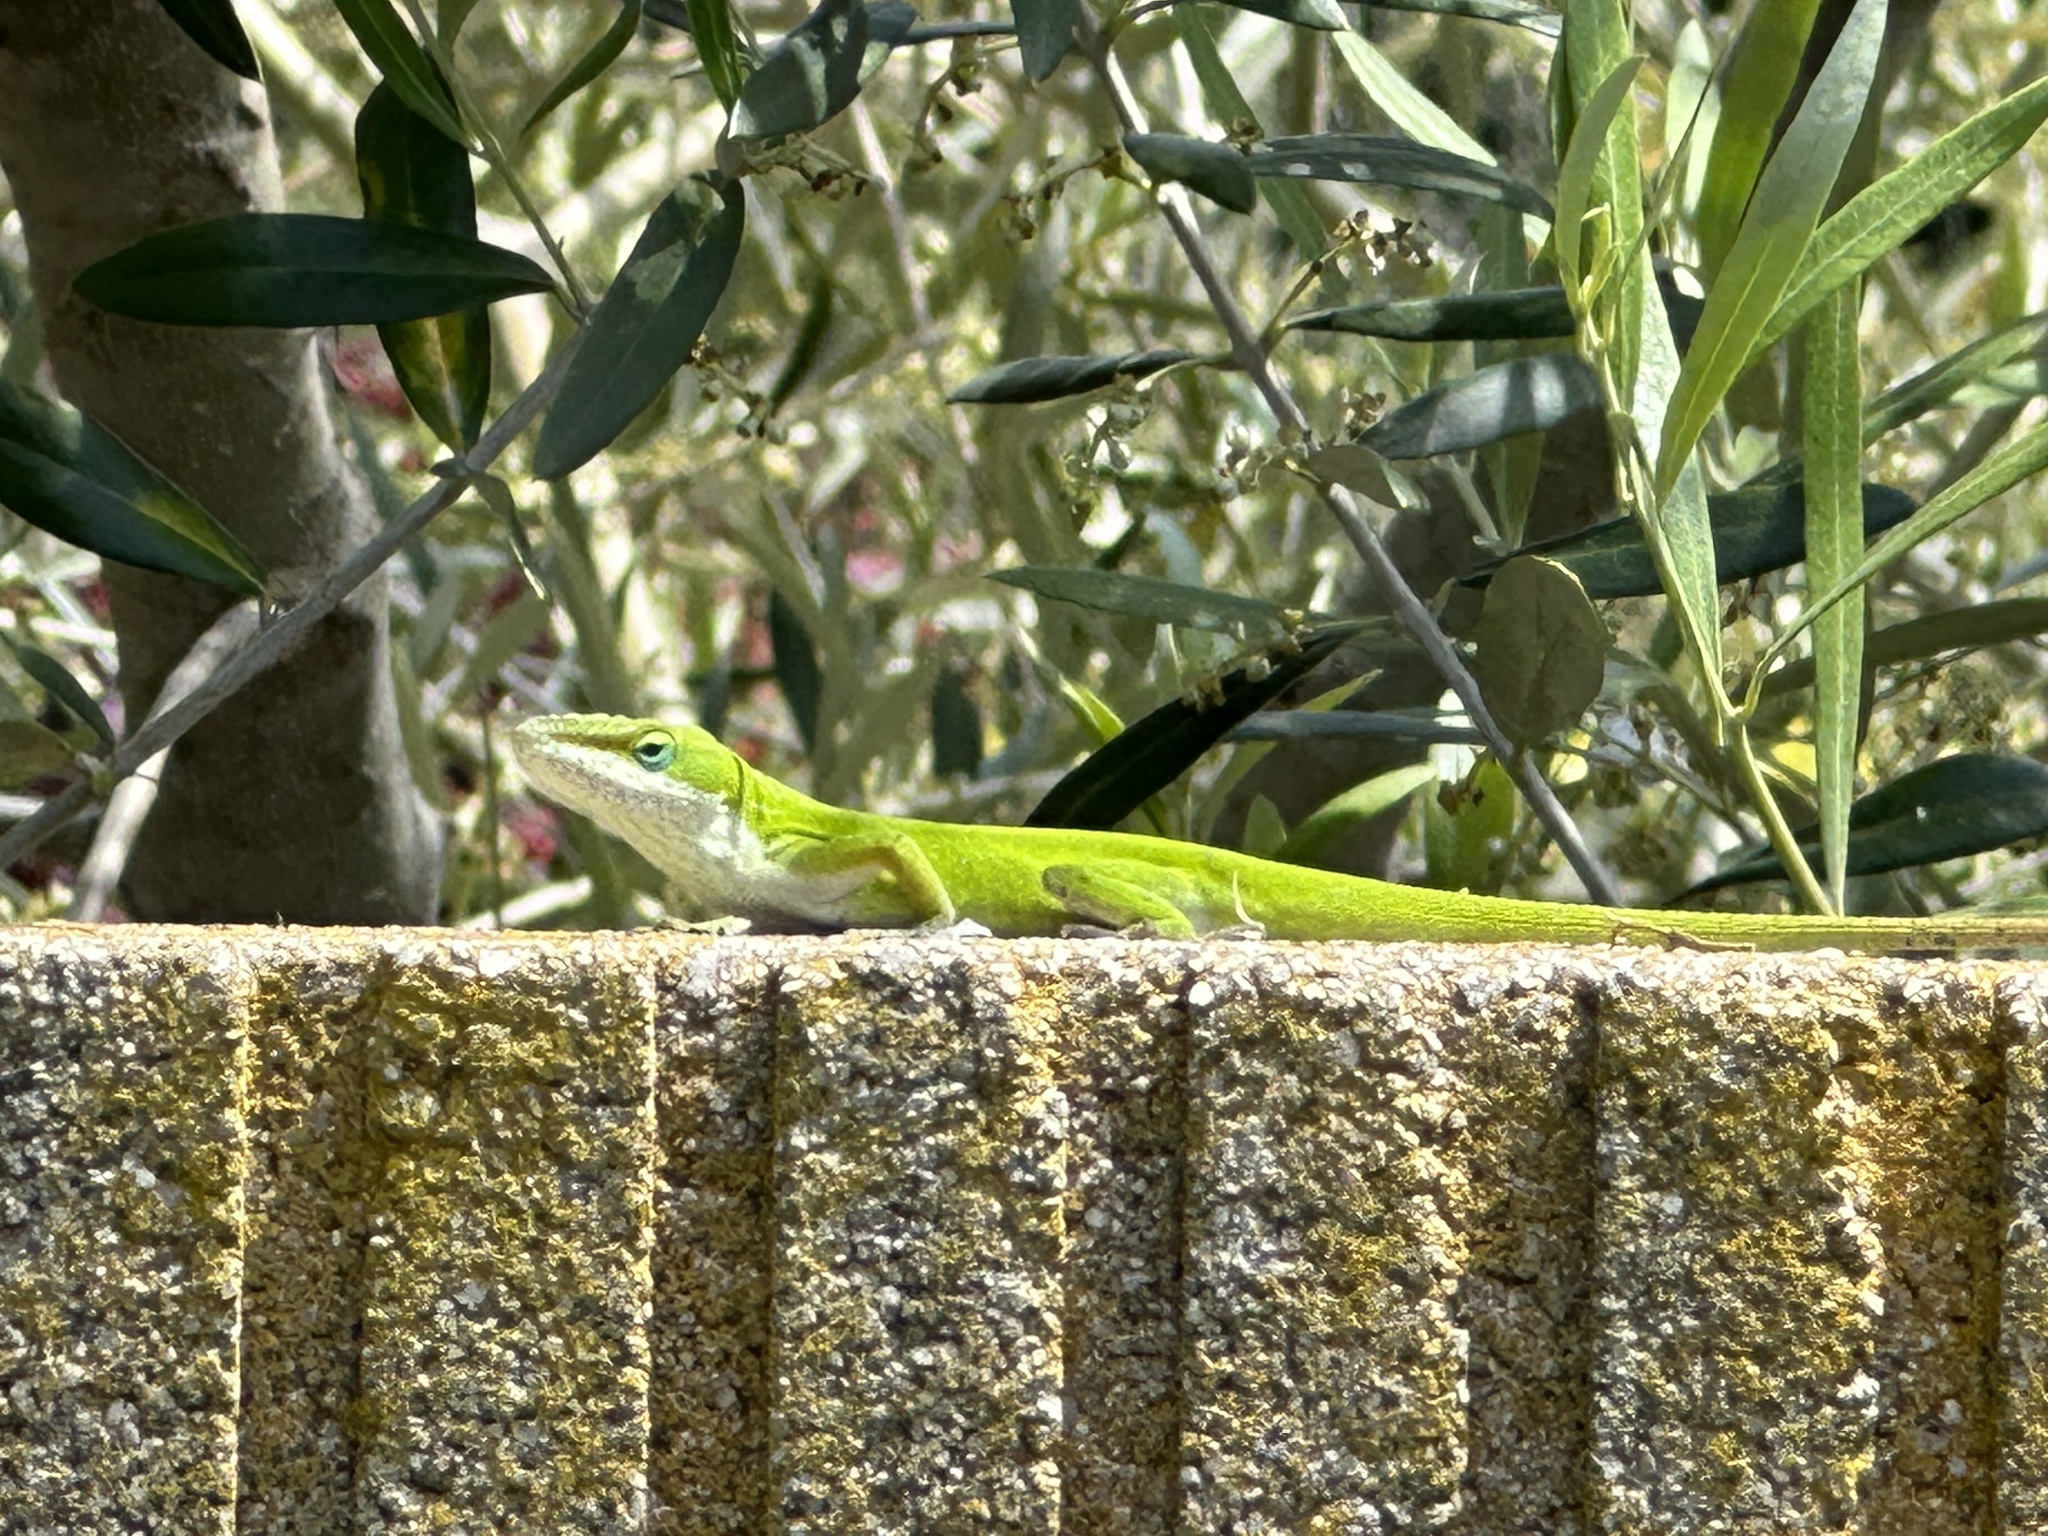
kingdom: Animalia
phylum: Chordata
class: Squamata
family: Dactyloidae
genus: Anolis
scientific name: Anolis carolinensis
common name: Green anole
